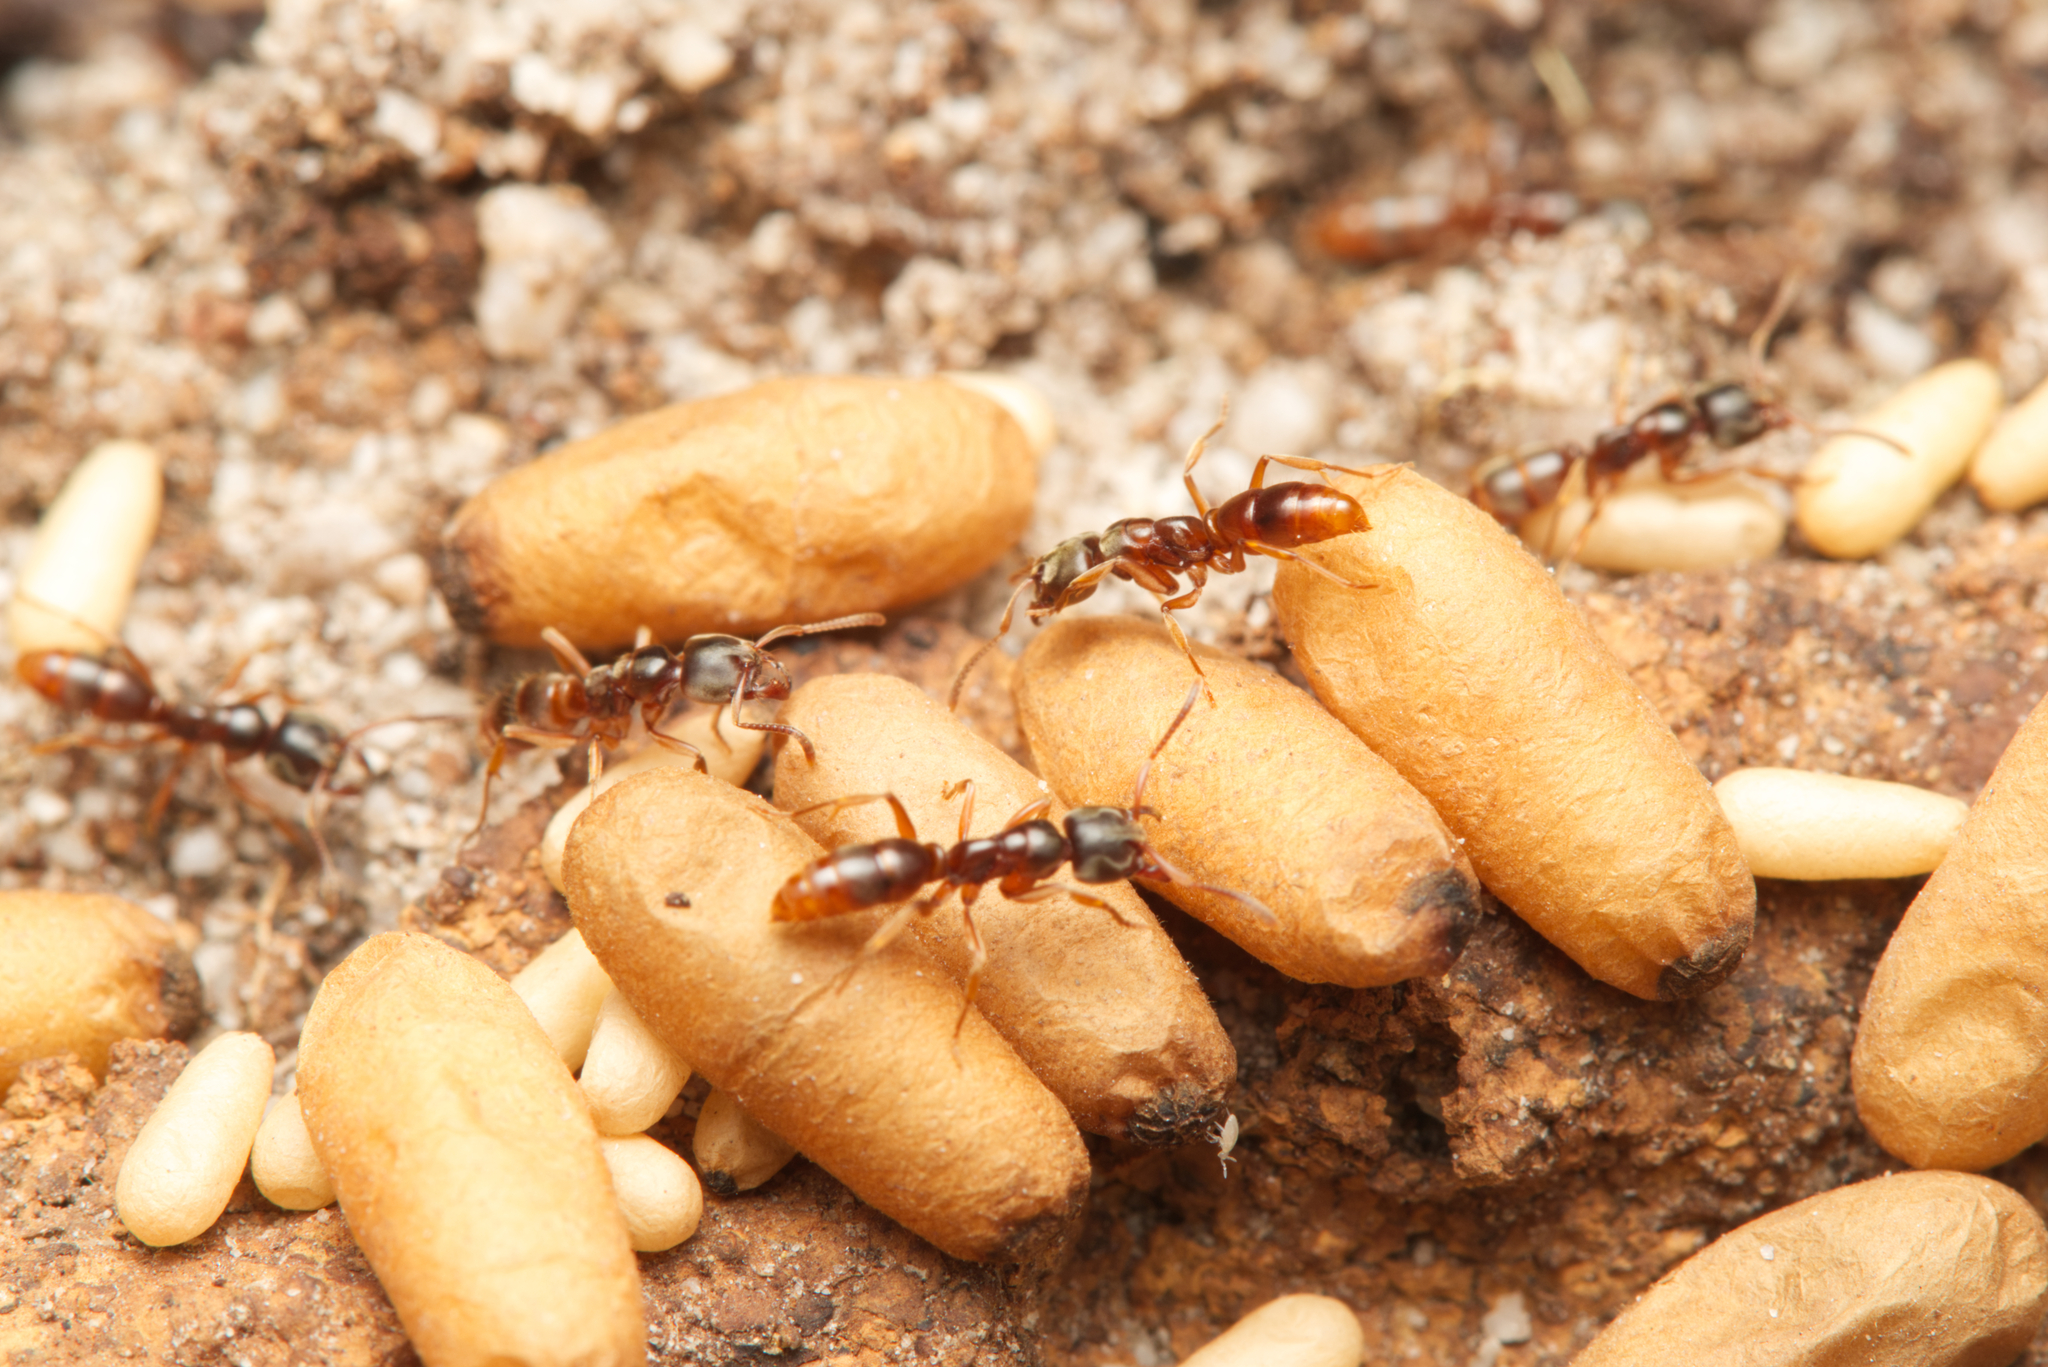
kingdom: Animalia
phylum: Arthropoda
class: Insecta
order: Hymenoptera
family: Formicidae
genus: Brachyponera
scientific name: Brachyponera
